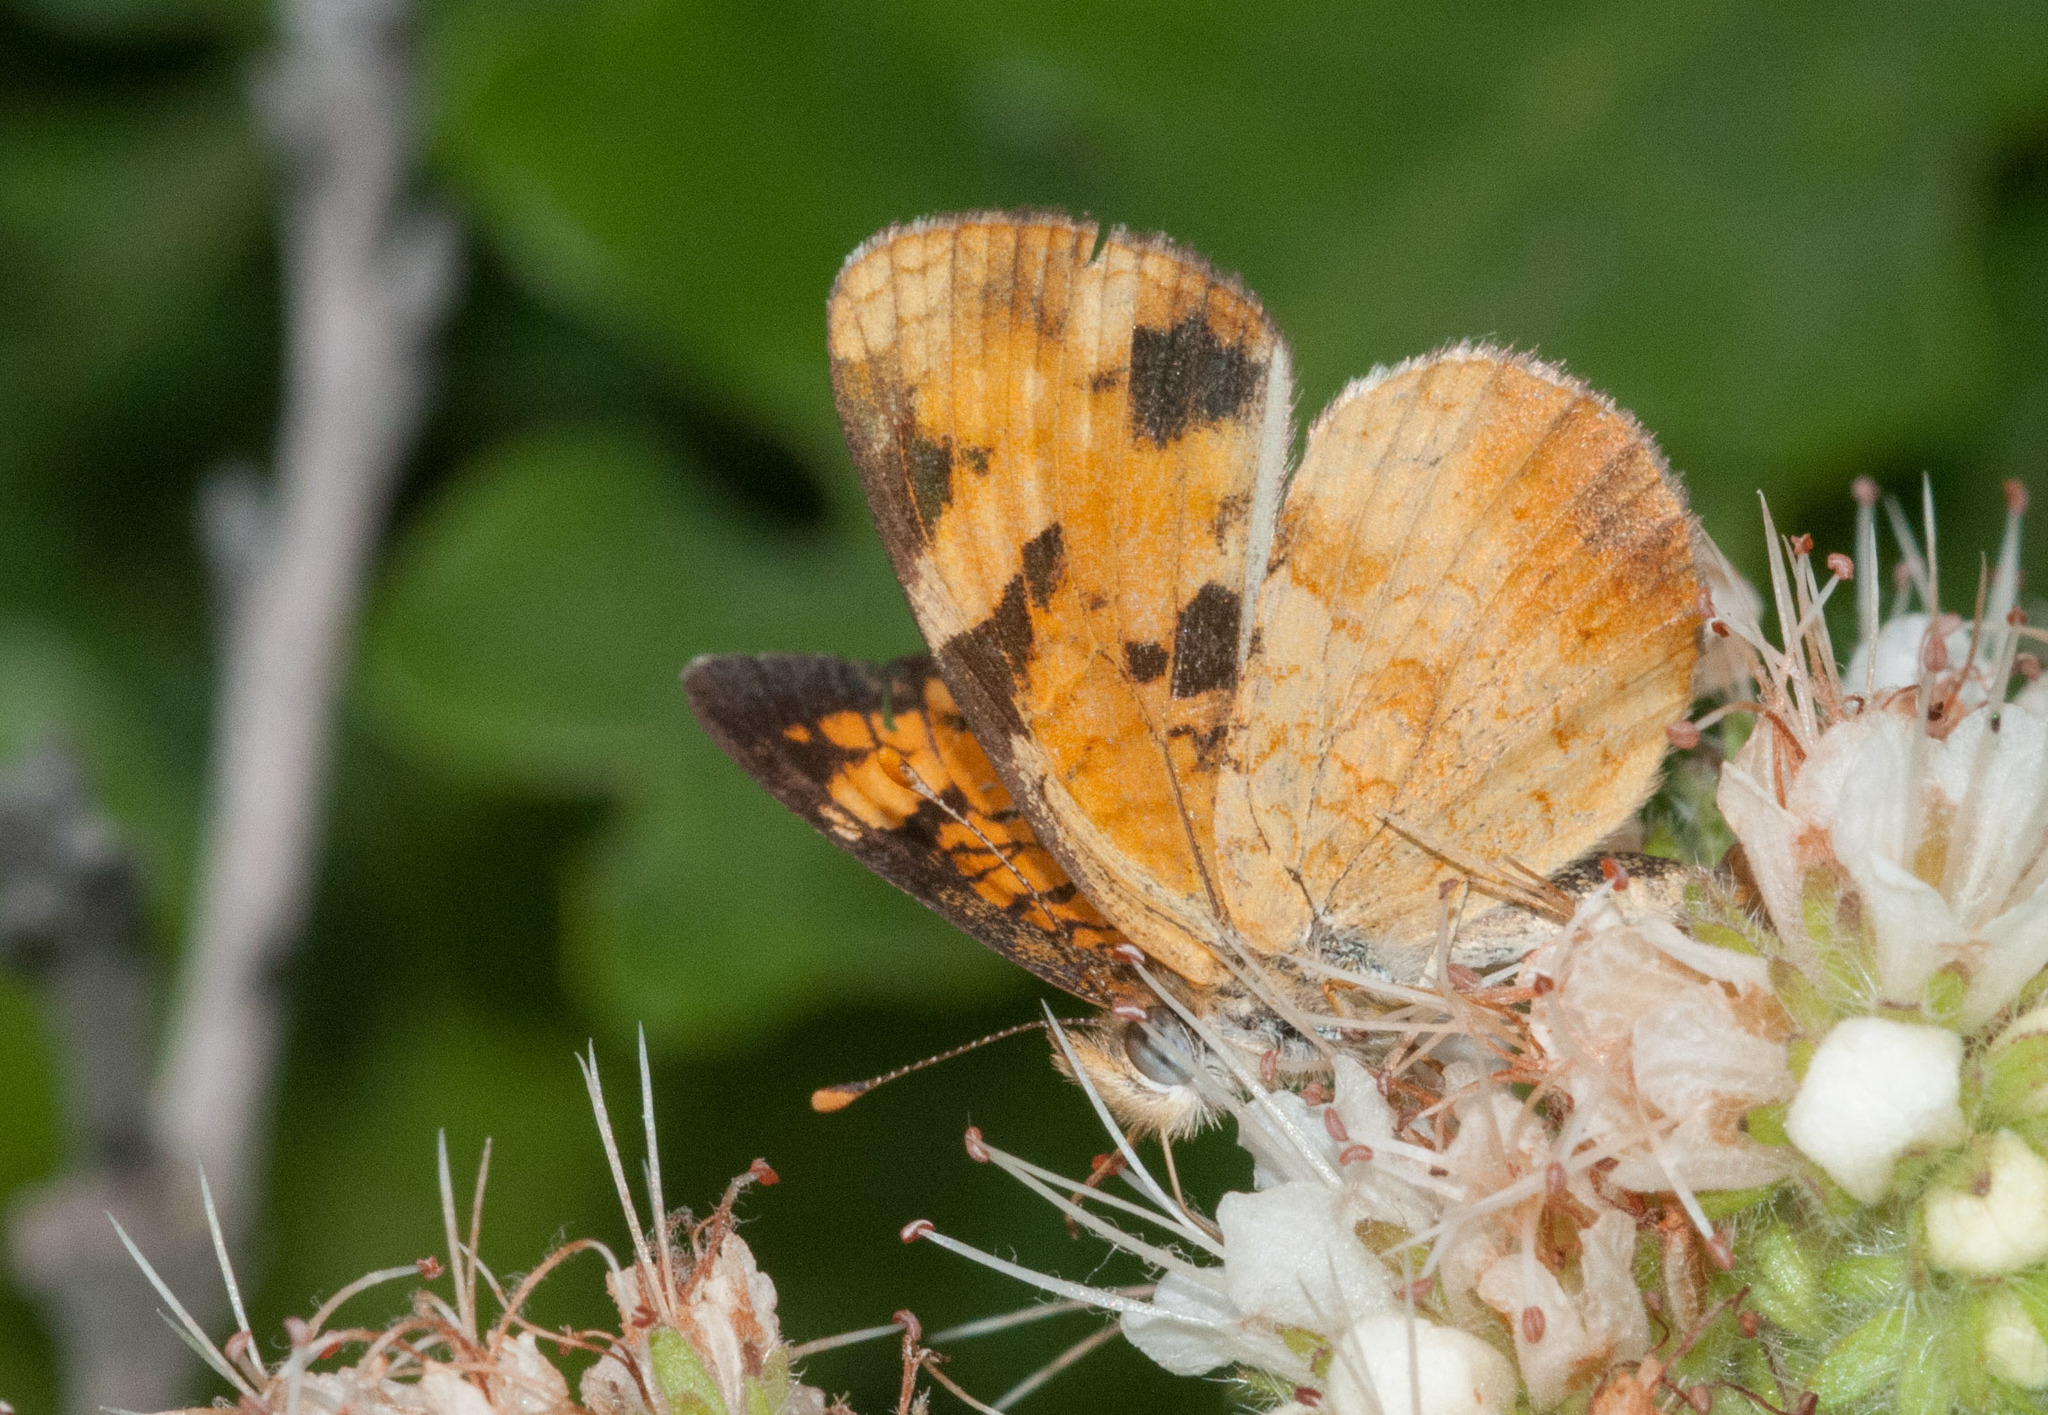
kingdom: Animalia
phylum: Arthropoda
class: Insecta
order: Lepidoptera
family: Nymphalidae
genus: Phyciodes
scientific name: Phyciodes tharos
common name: Pearl crescent
